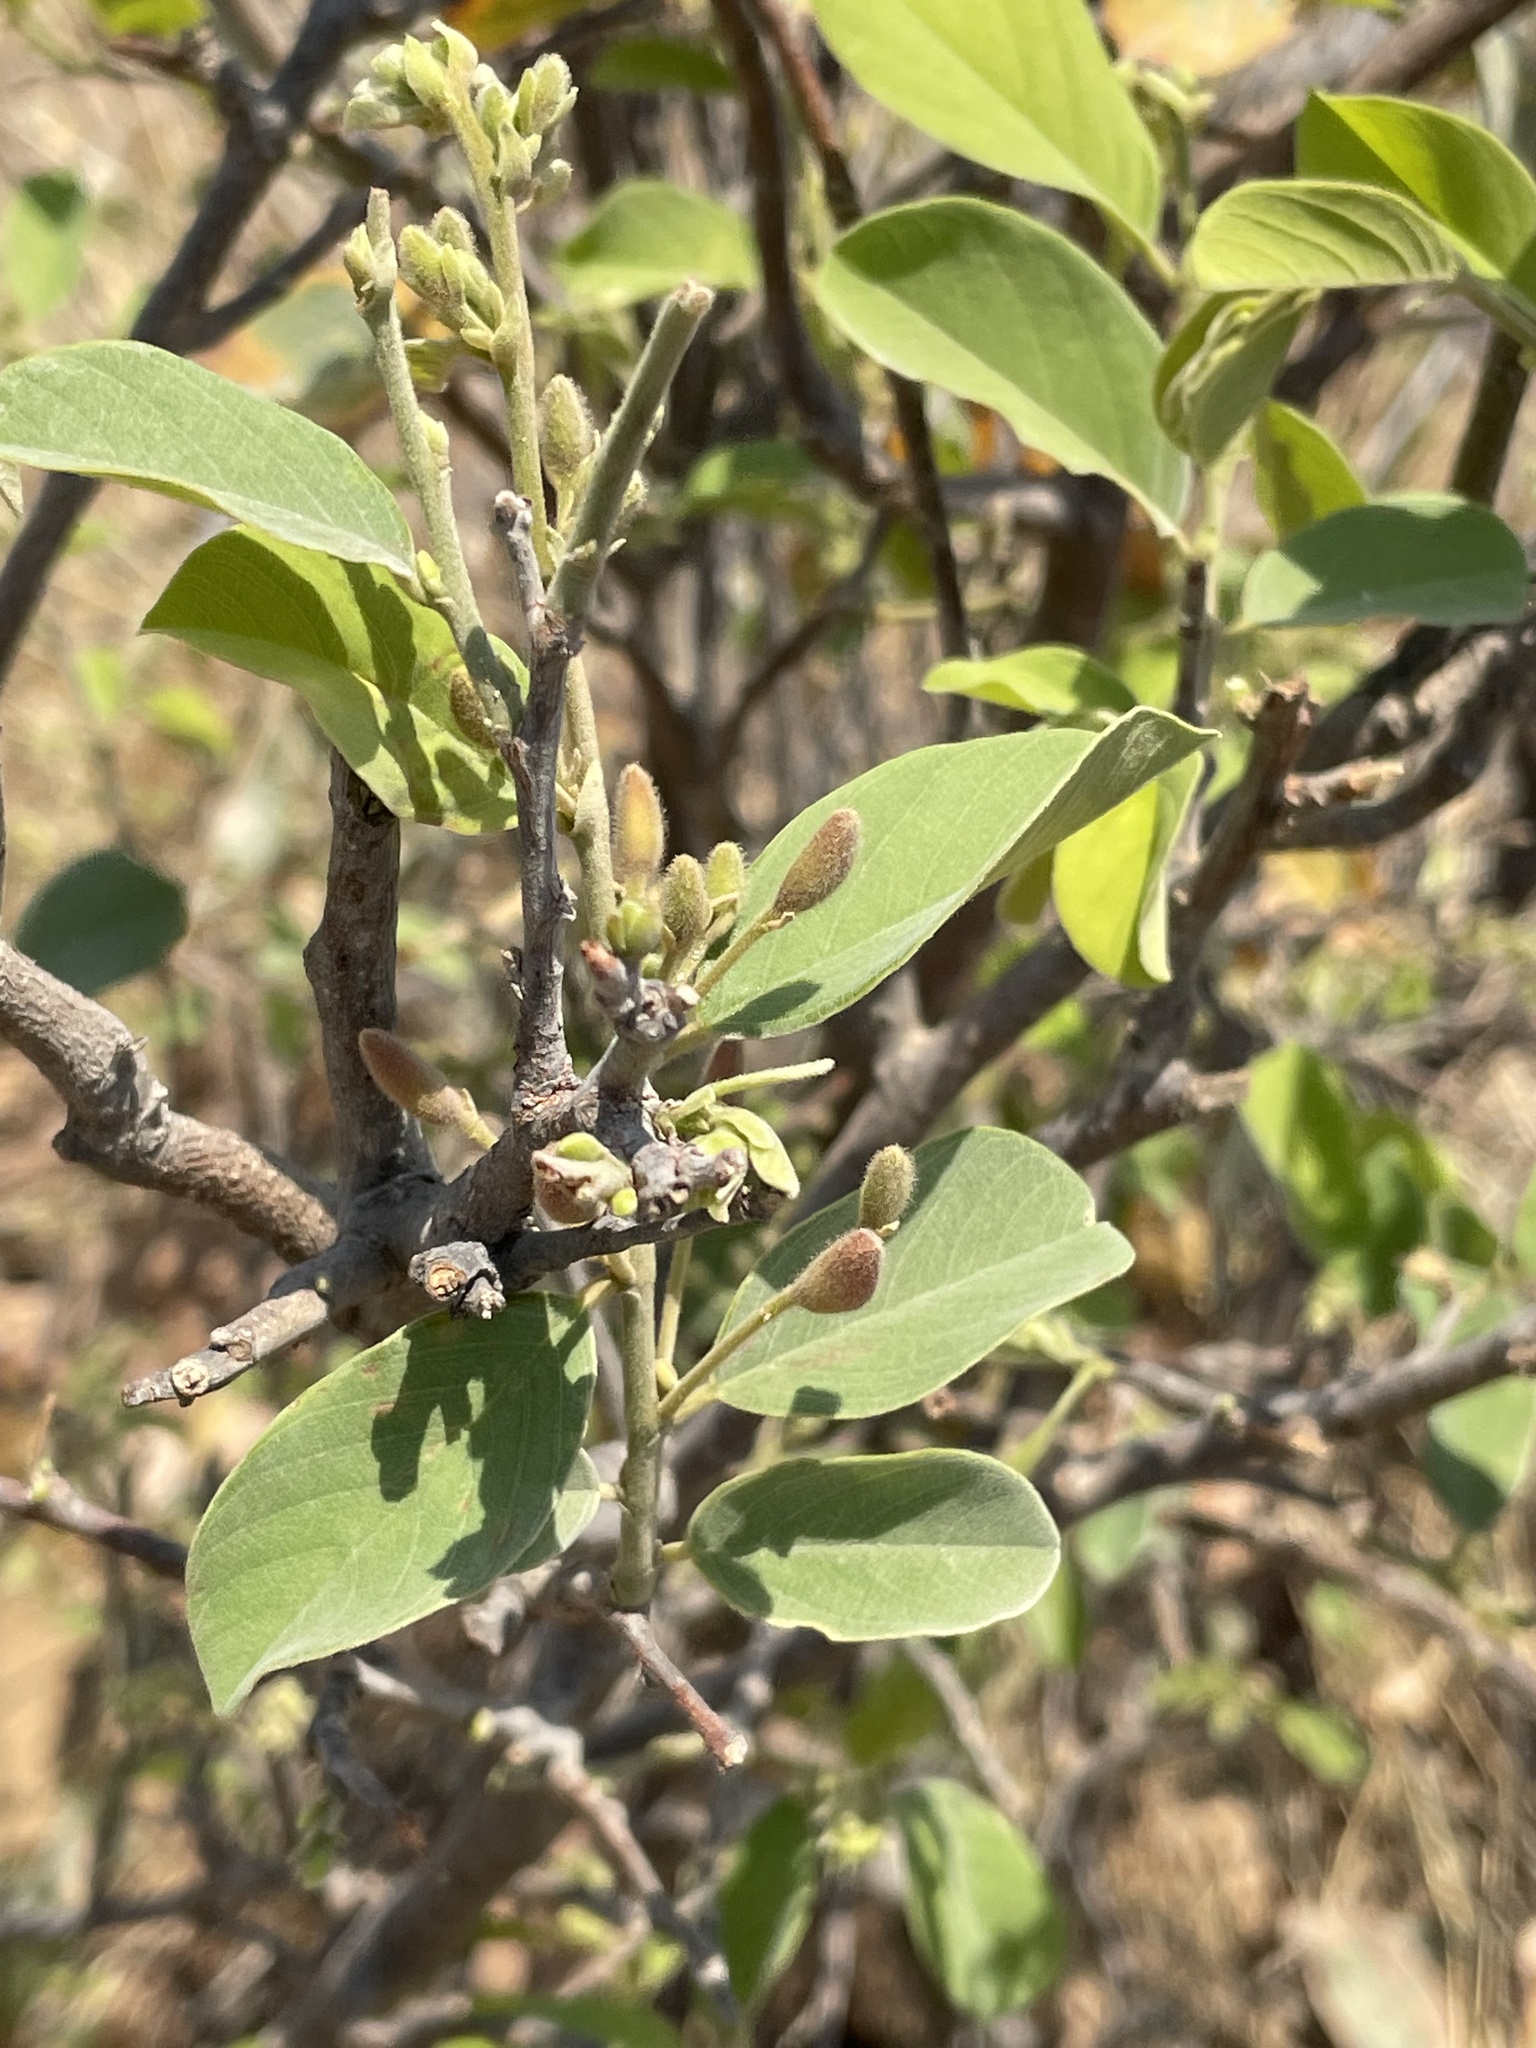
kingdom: Plantae
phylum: Tracheophyta
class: Magnoliopsida
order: Fabales
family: Fabaceae
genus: Baphia
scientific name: Baphia massaiensis
